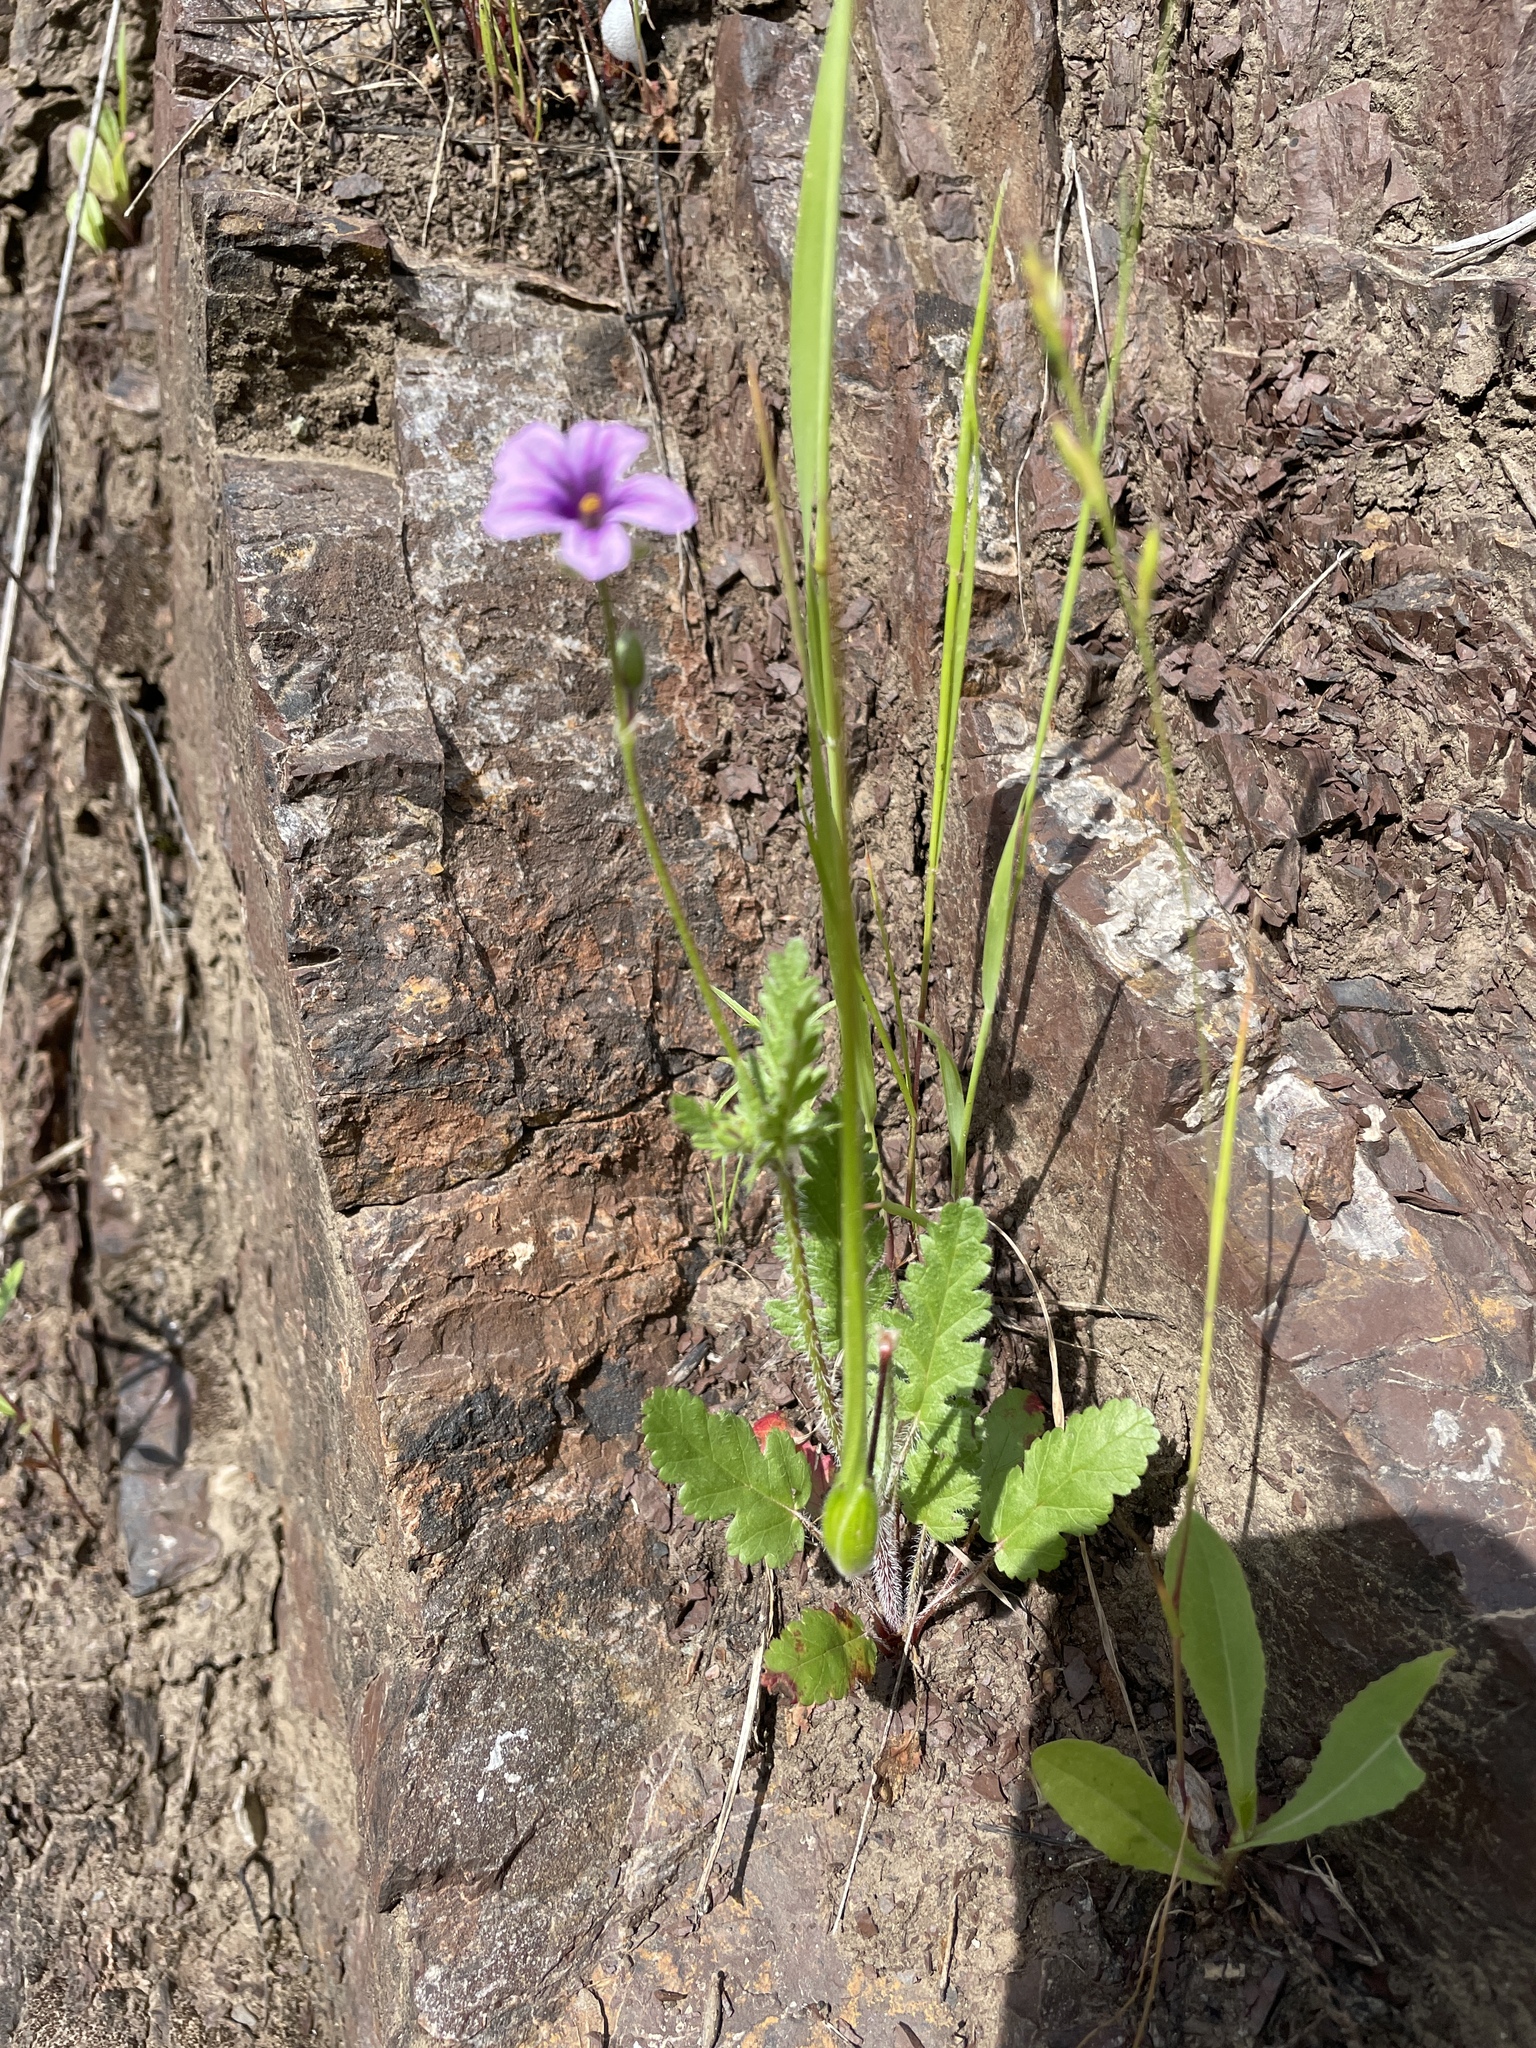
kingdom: Plantae
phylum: Tracheophyta
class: Magnoliopsida
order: Geraniales
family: Geraniaceae
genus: Erodium
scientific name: Erodium botrys
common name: Mediterranean stork's-bill
